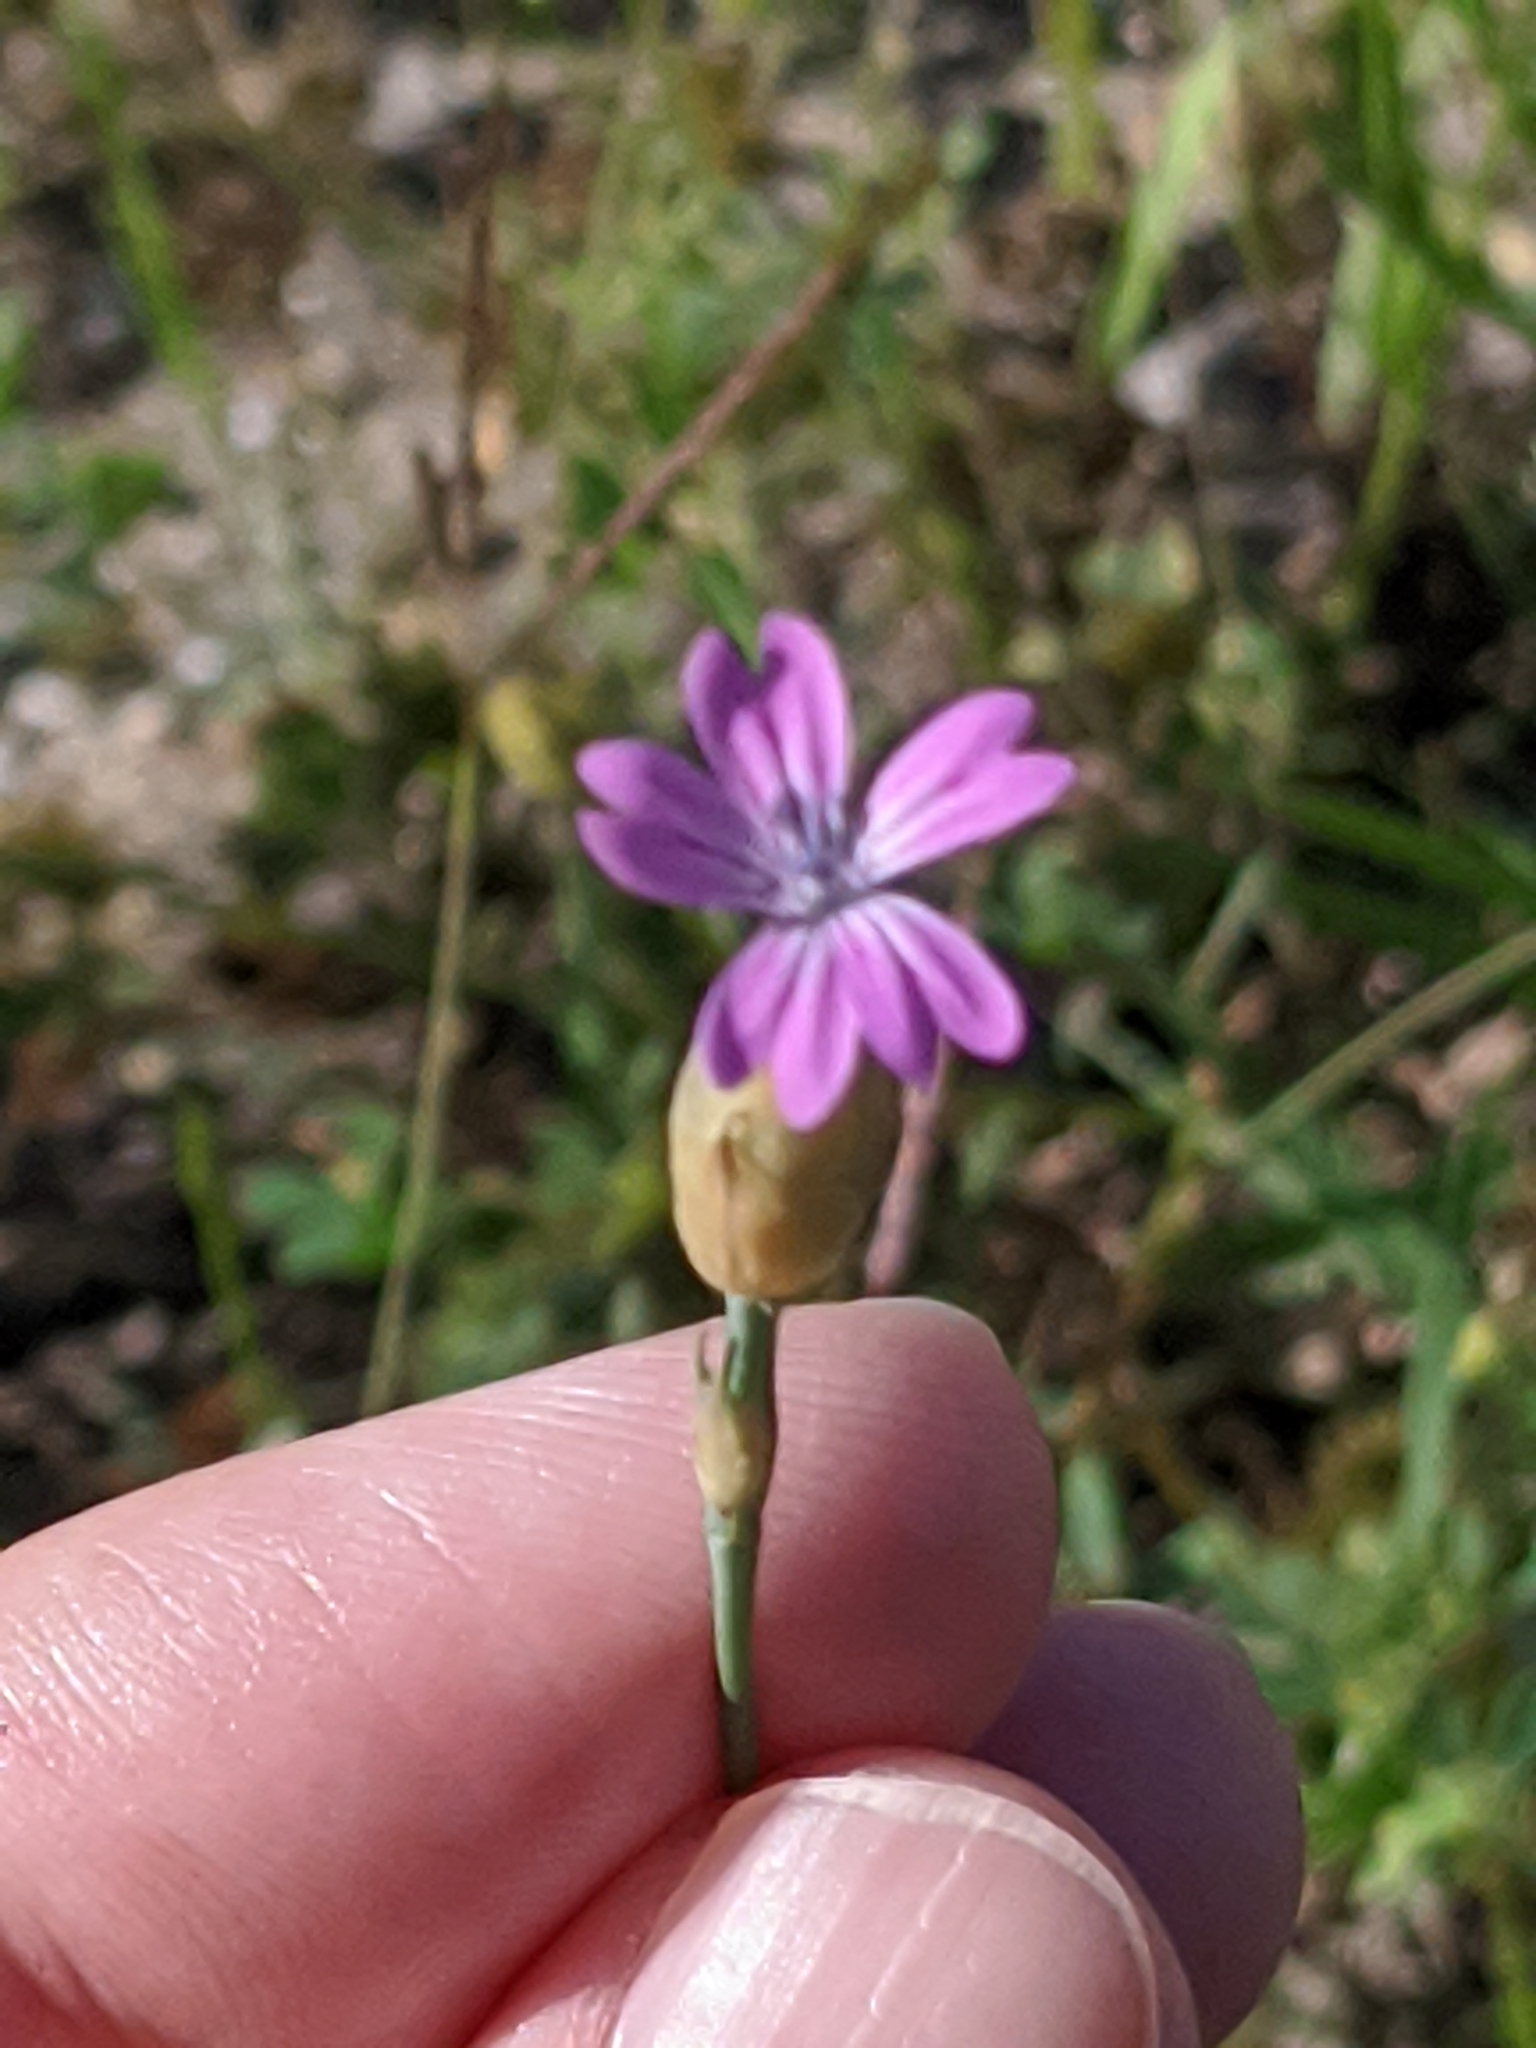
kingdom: Plantae
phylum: Tracheophyta
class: Magnoliopsida
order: Caryophyllales
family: Caryophyllaceae
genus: Petrorhagia
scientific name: Petrorhagia dubia
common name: Hairypink
